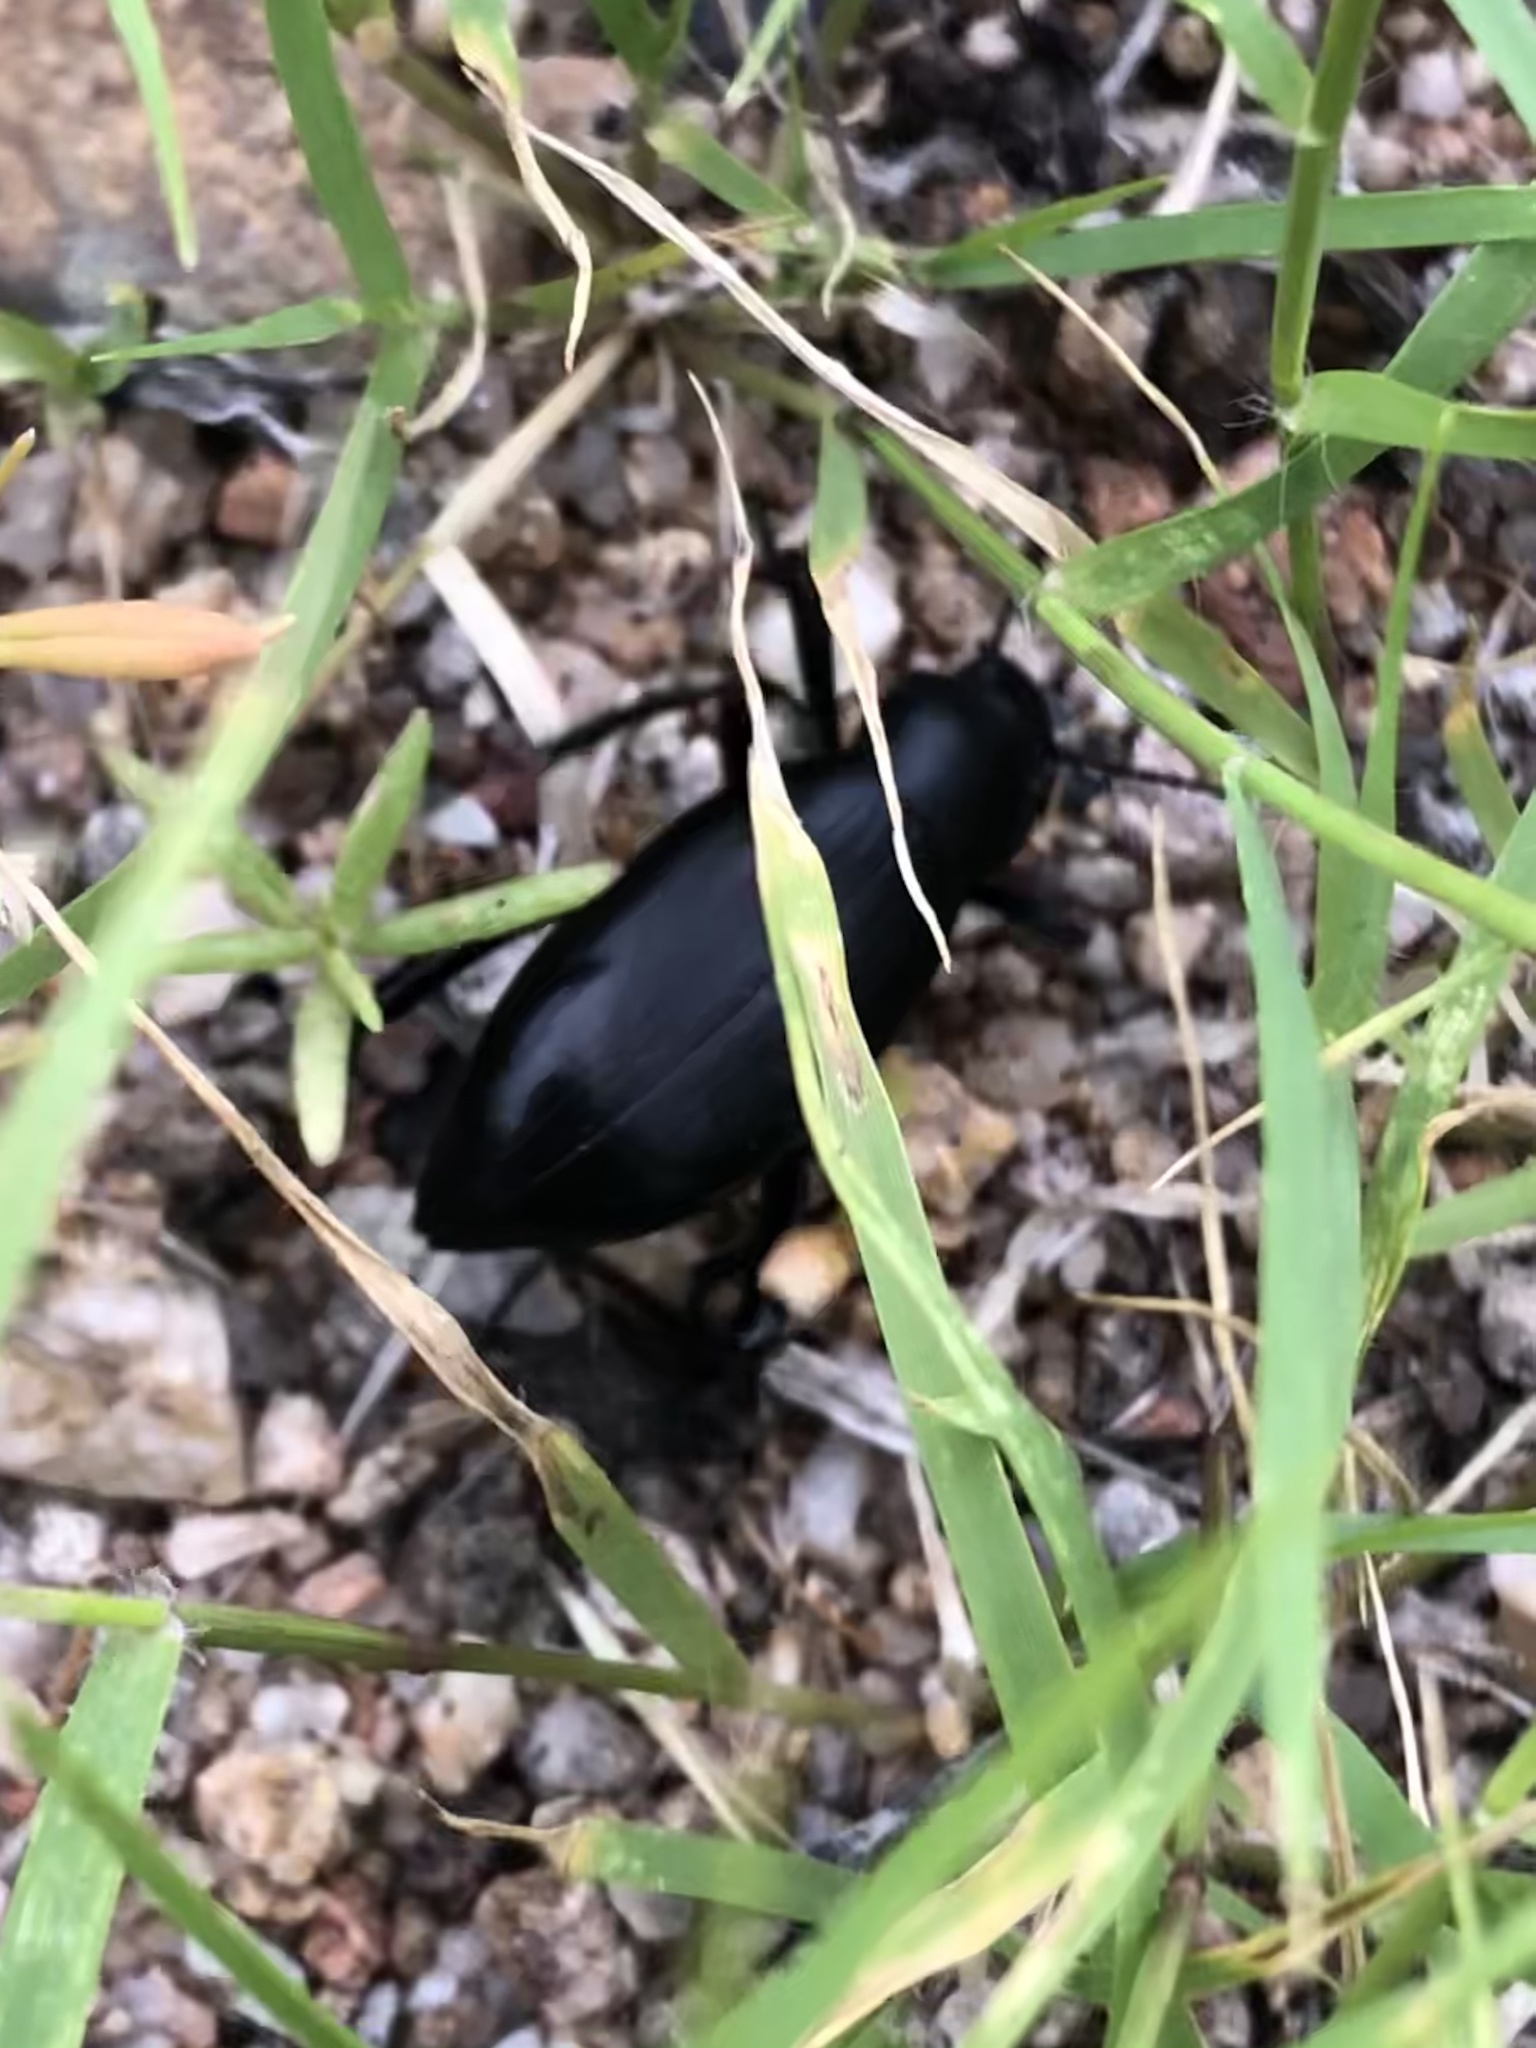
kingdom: Animalia
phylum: Arthropoda
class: Insecta
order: Coleoptera
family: Tenebrionidae
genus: Eleodes
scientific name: Eleodes gracilis
